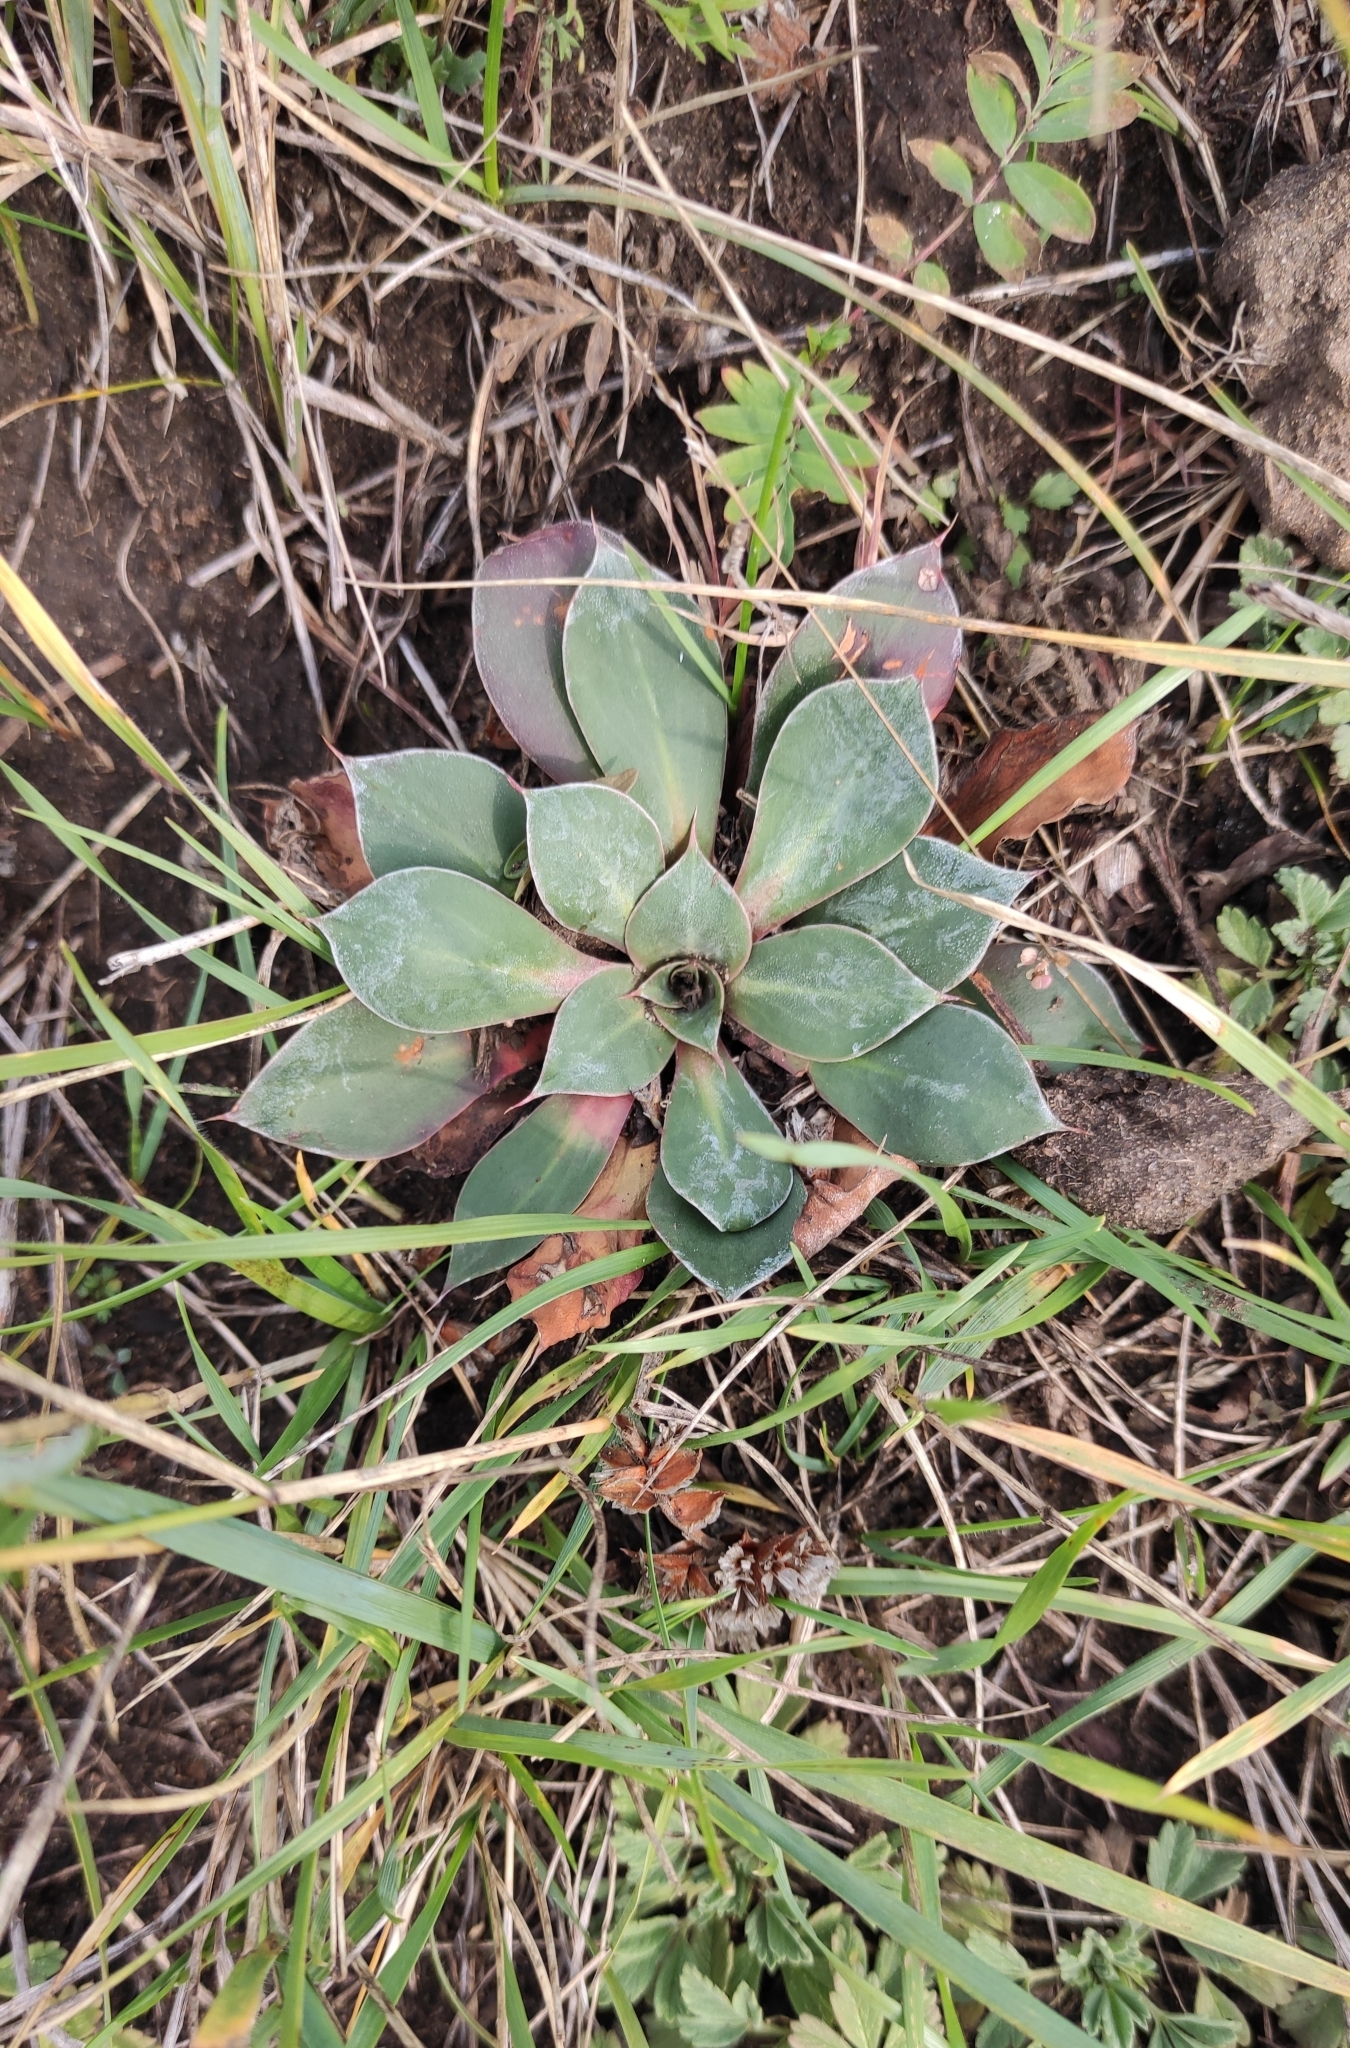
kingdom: Plantae
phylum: Tracheophyta
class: Magnoliopsida
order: Caryophyllales
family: Plumbaginaceae
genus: Goniolimon
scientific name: Goniolimon speciosum
